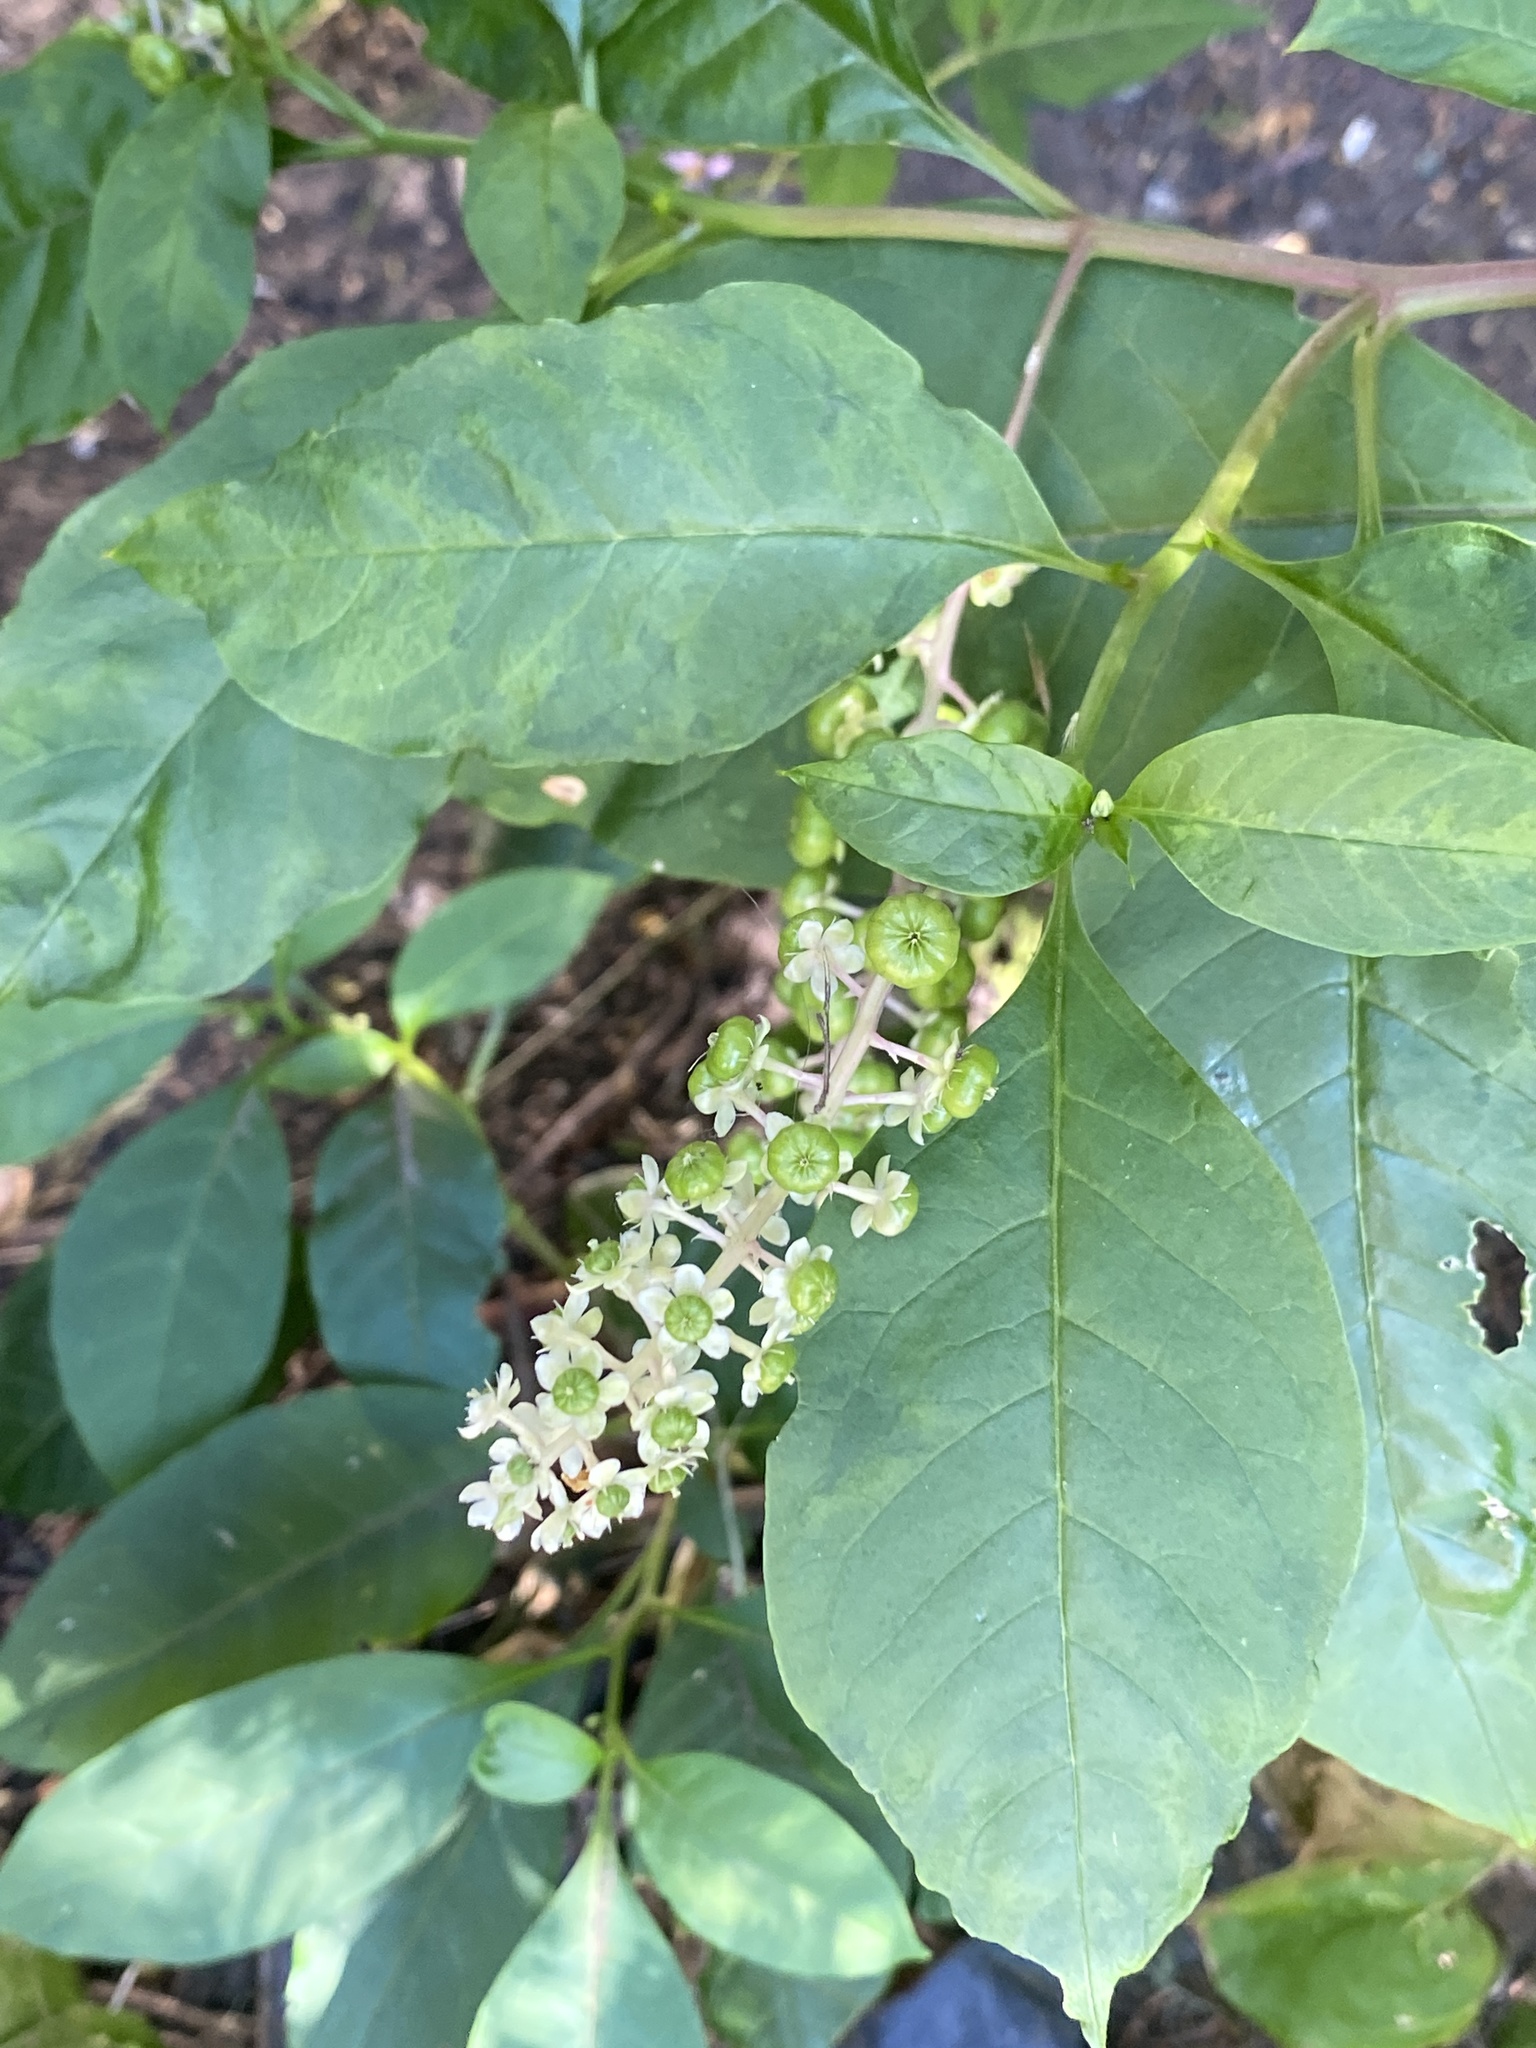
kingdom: Plantae
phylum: Tracheophyta
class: Magnoliopsida
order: Caryophyllales
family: Phytolaccaceae
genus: Phytolacca
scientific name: Phytolacca americana
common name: American pokeweed
